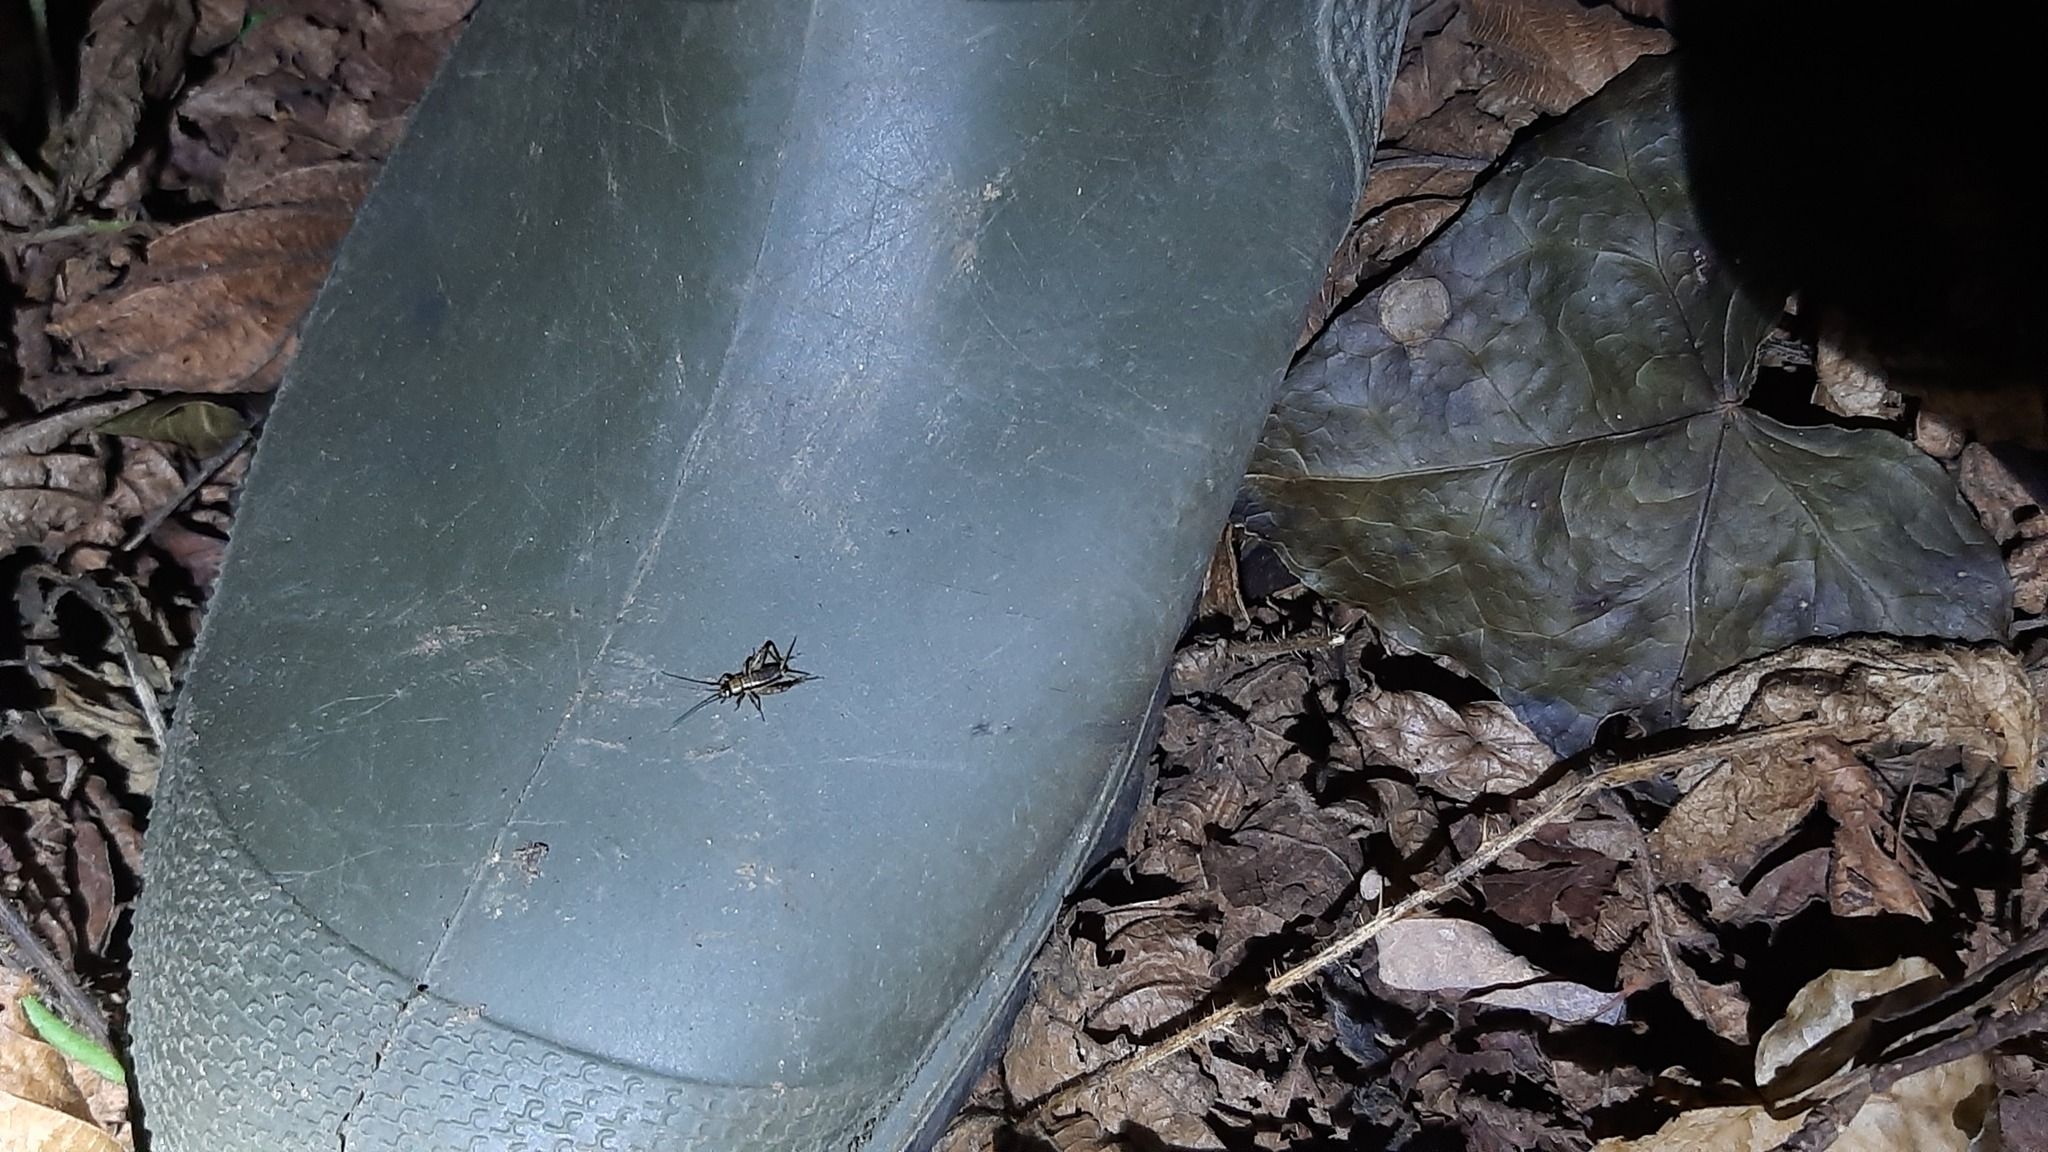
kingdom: Animalia
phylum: Arthropoda
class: Insecta
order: Orthoptera
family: Trigonidiidae
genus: Nemobius
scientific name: Nemobius sylvestris
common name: Wood-cricket
